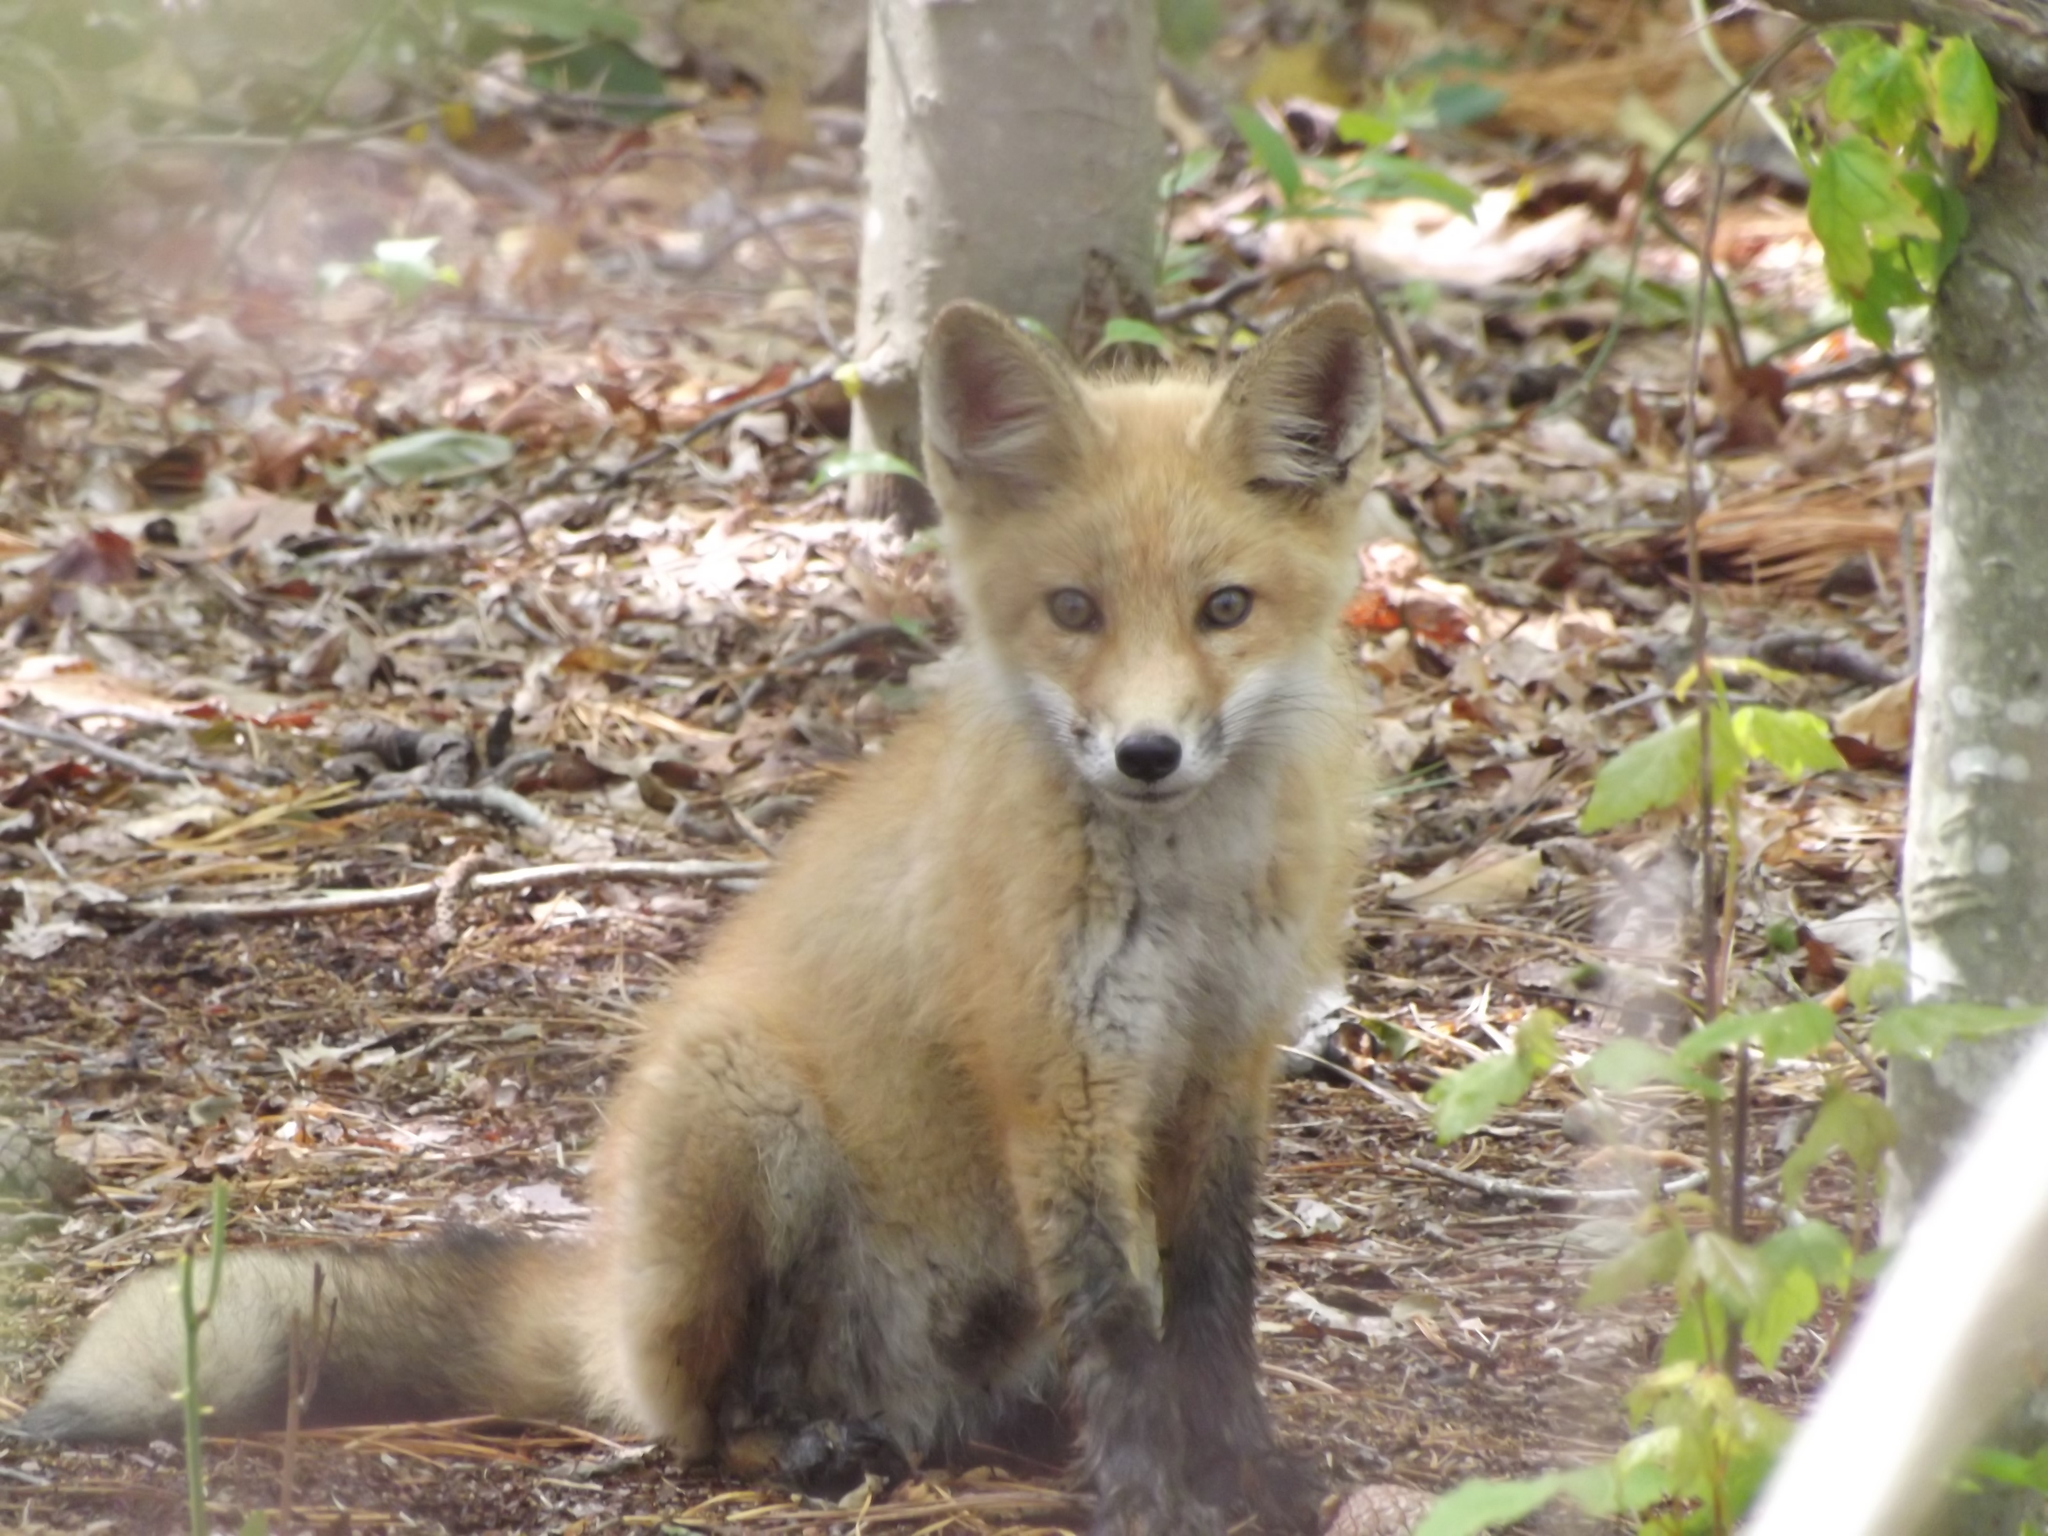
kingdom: Animalia
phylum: Chordata
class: Mammalia
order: Carnivora
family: Canidae
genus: Vulpes
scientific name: Vulpes vulpes
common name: Red fox
